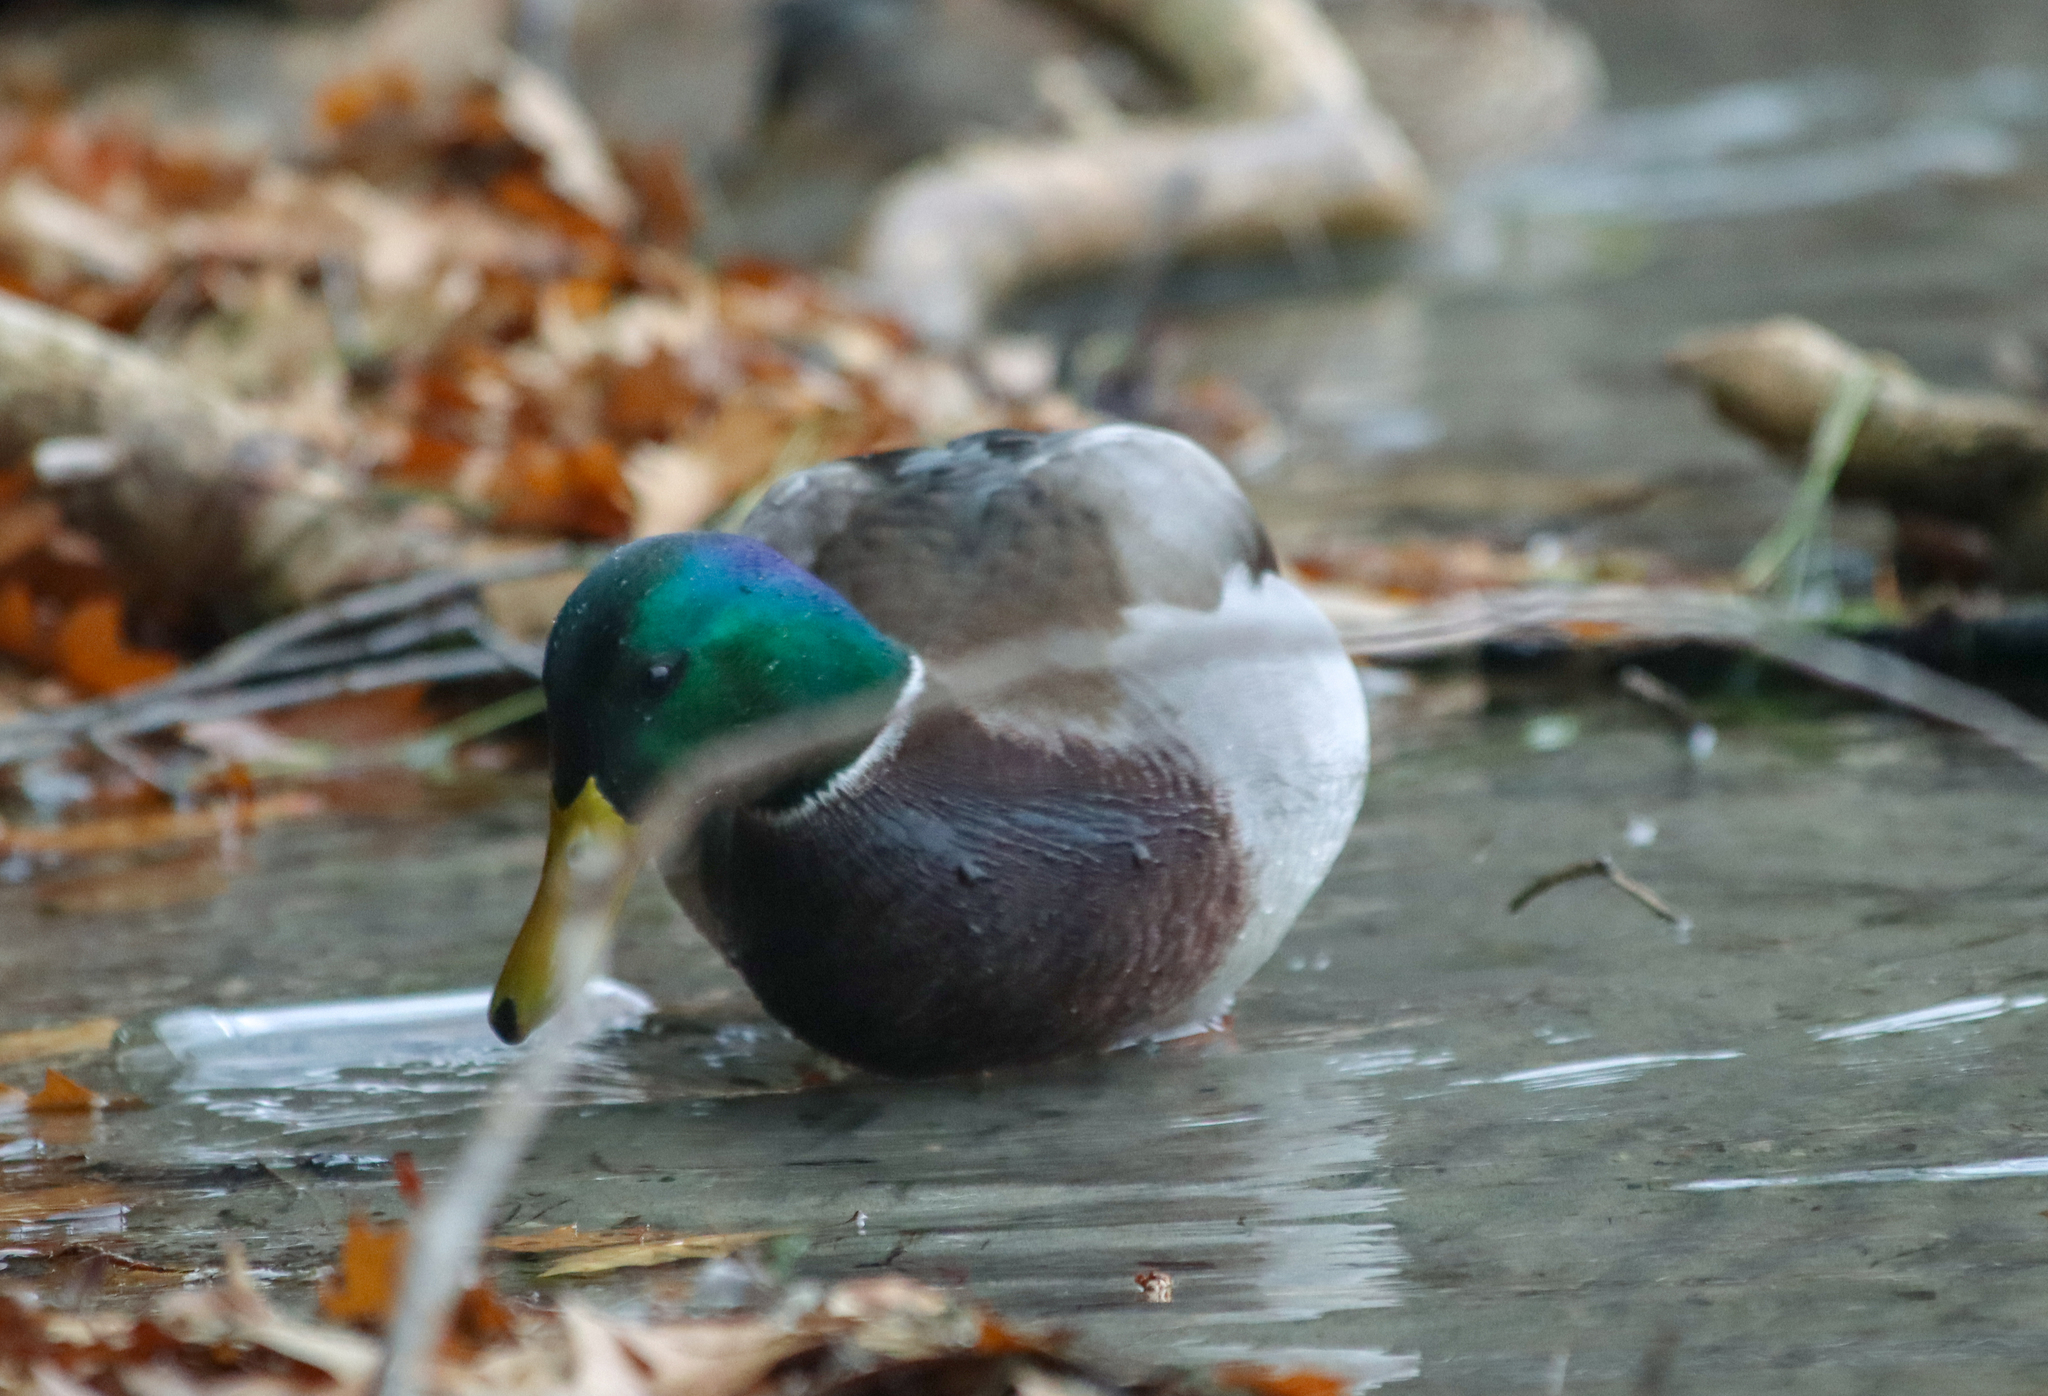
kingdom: Animalia
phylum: Chordata
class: Aves
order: Anseriformes
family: Anatidae
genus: Anas
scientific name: Anas platyrhynchos
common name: Mallard
